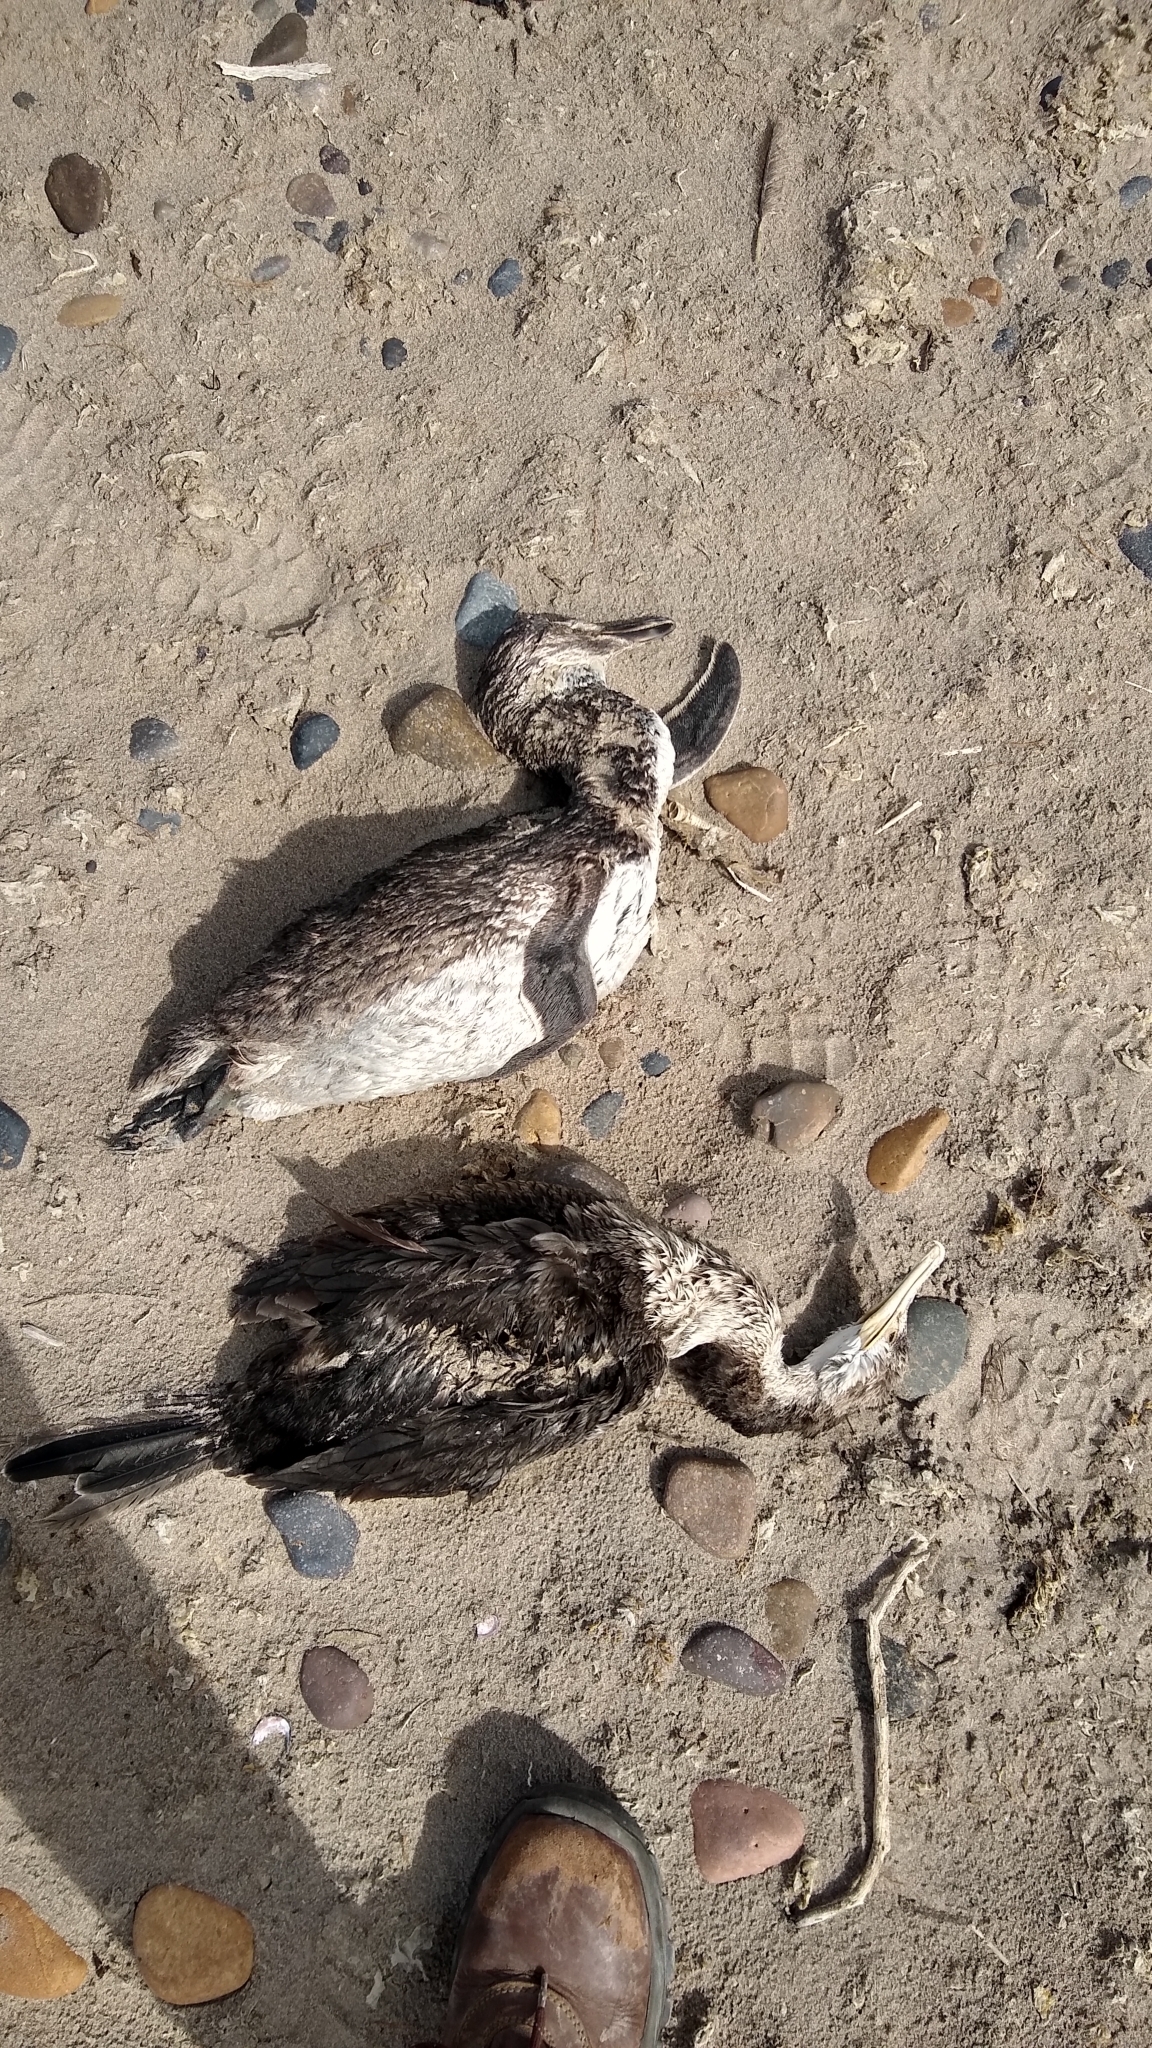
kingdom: Animalia
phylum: Chordata
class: Aves
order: Sphenisciformes
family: Spheniscidae
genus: Spheniscus
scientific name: Spheniscus magellanicus
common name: Magellanic penguin
